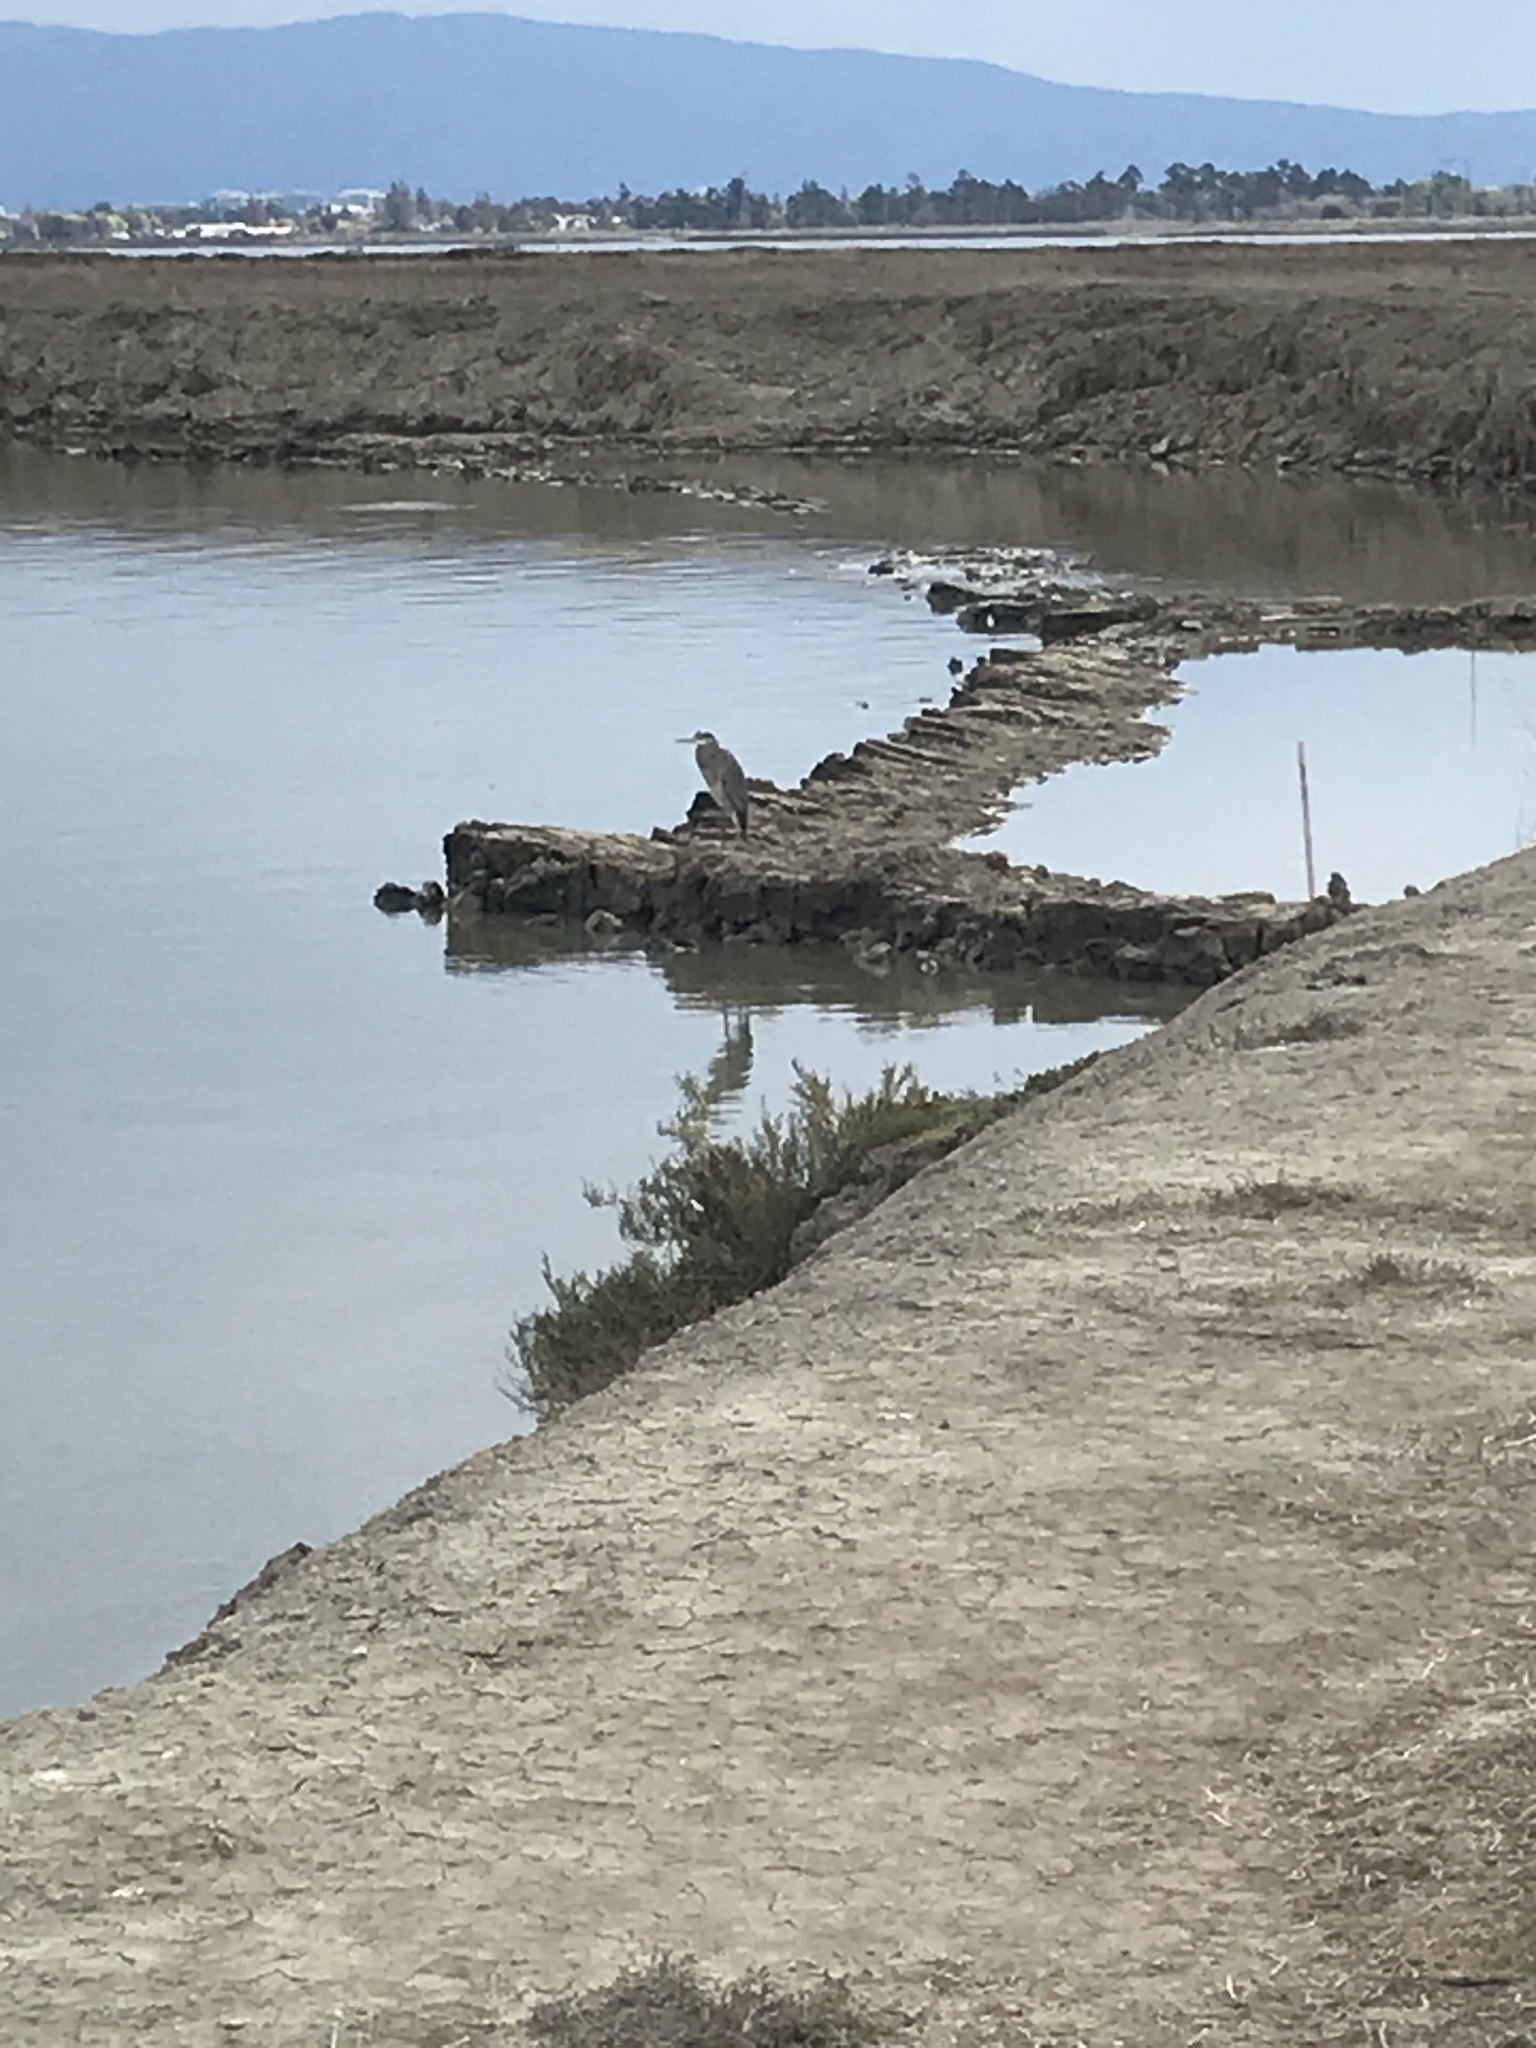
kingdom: Animalia
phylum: Chordata
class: Aves
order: Pelecaniformes
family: Ardeidae
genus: Ardea
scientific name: Ardea herodias
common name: Great blue heron
